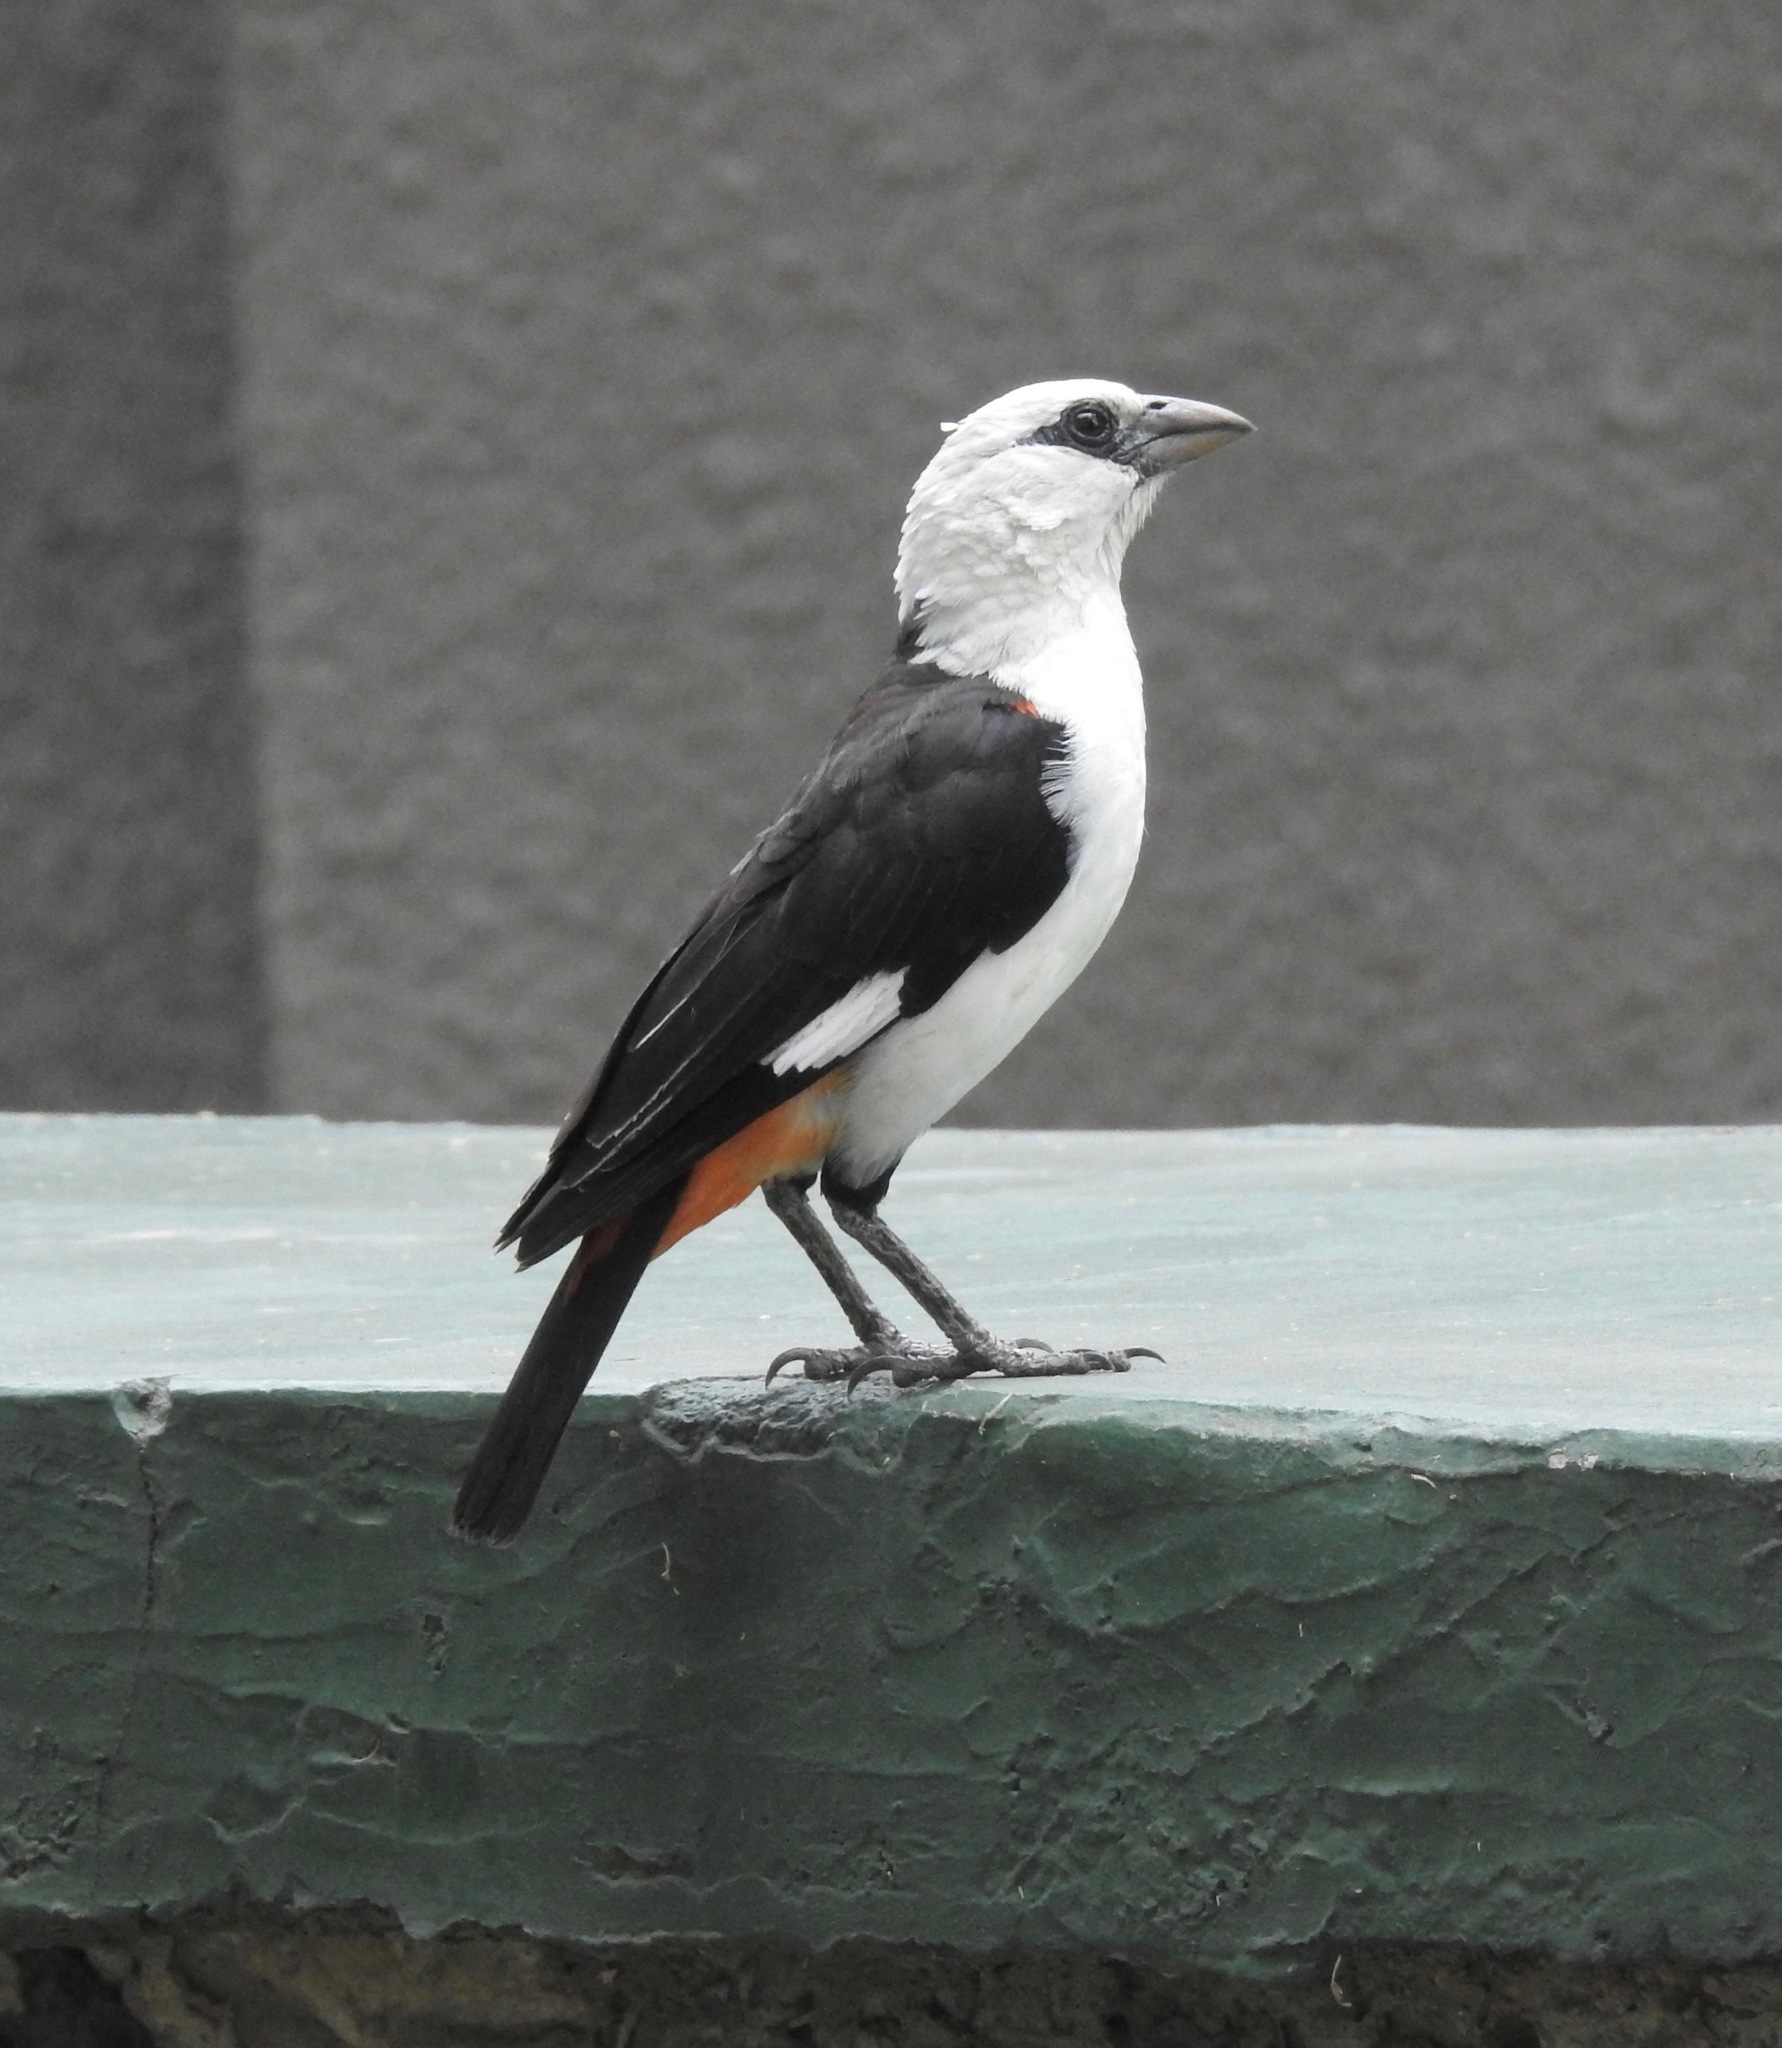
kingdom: Animalia
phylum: Chordata
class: Aves
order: Passeriformes
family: Ploceidae
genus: Dinemellia
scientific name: Dinemellia dinemelli
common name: White-headed buffalo weaver
